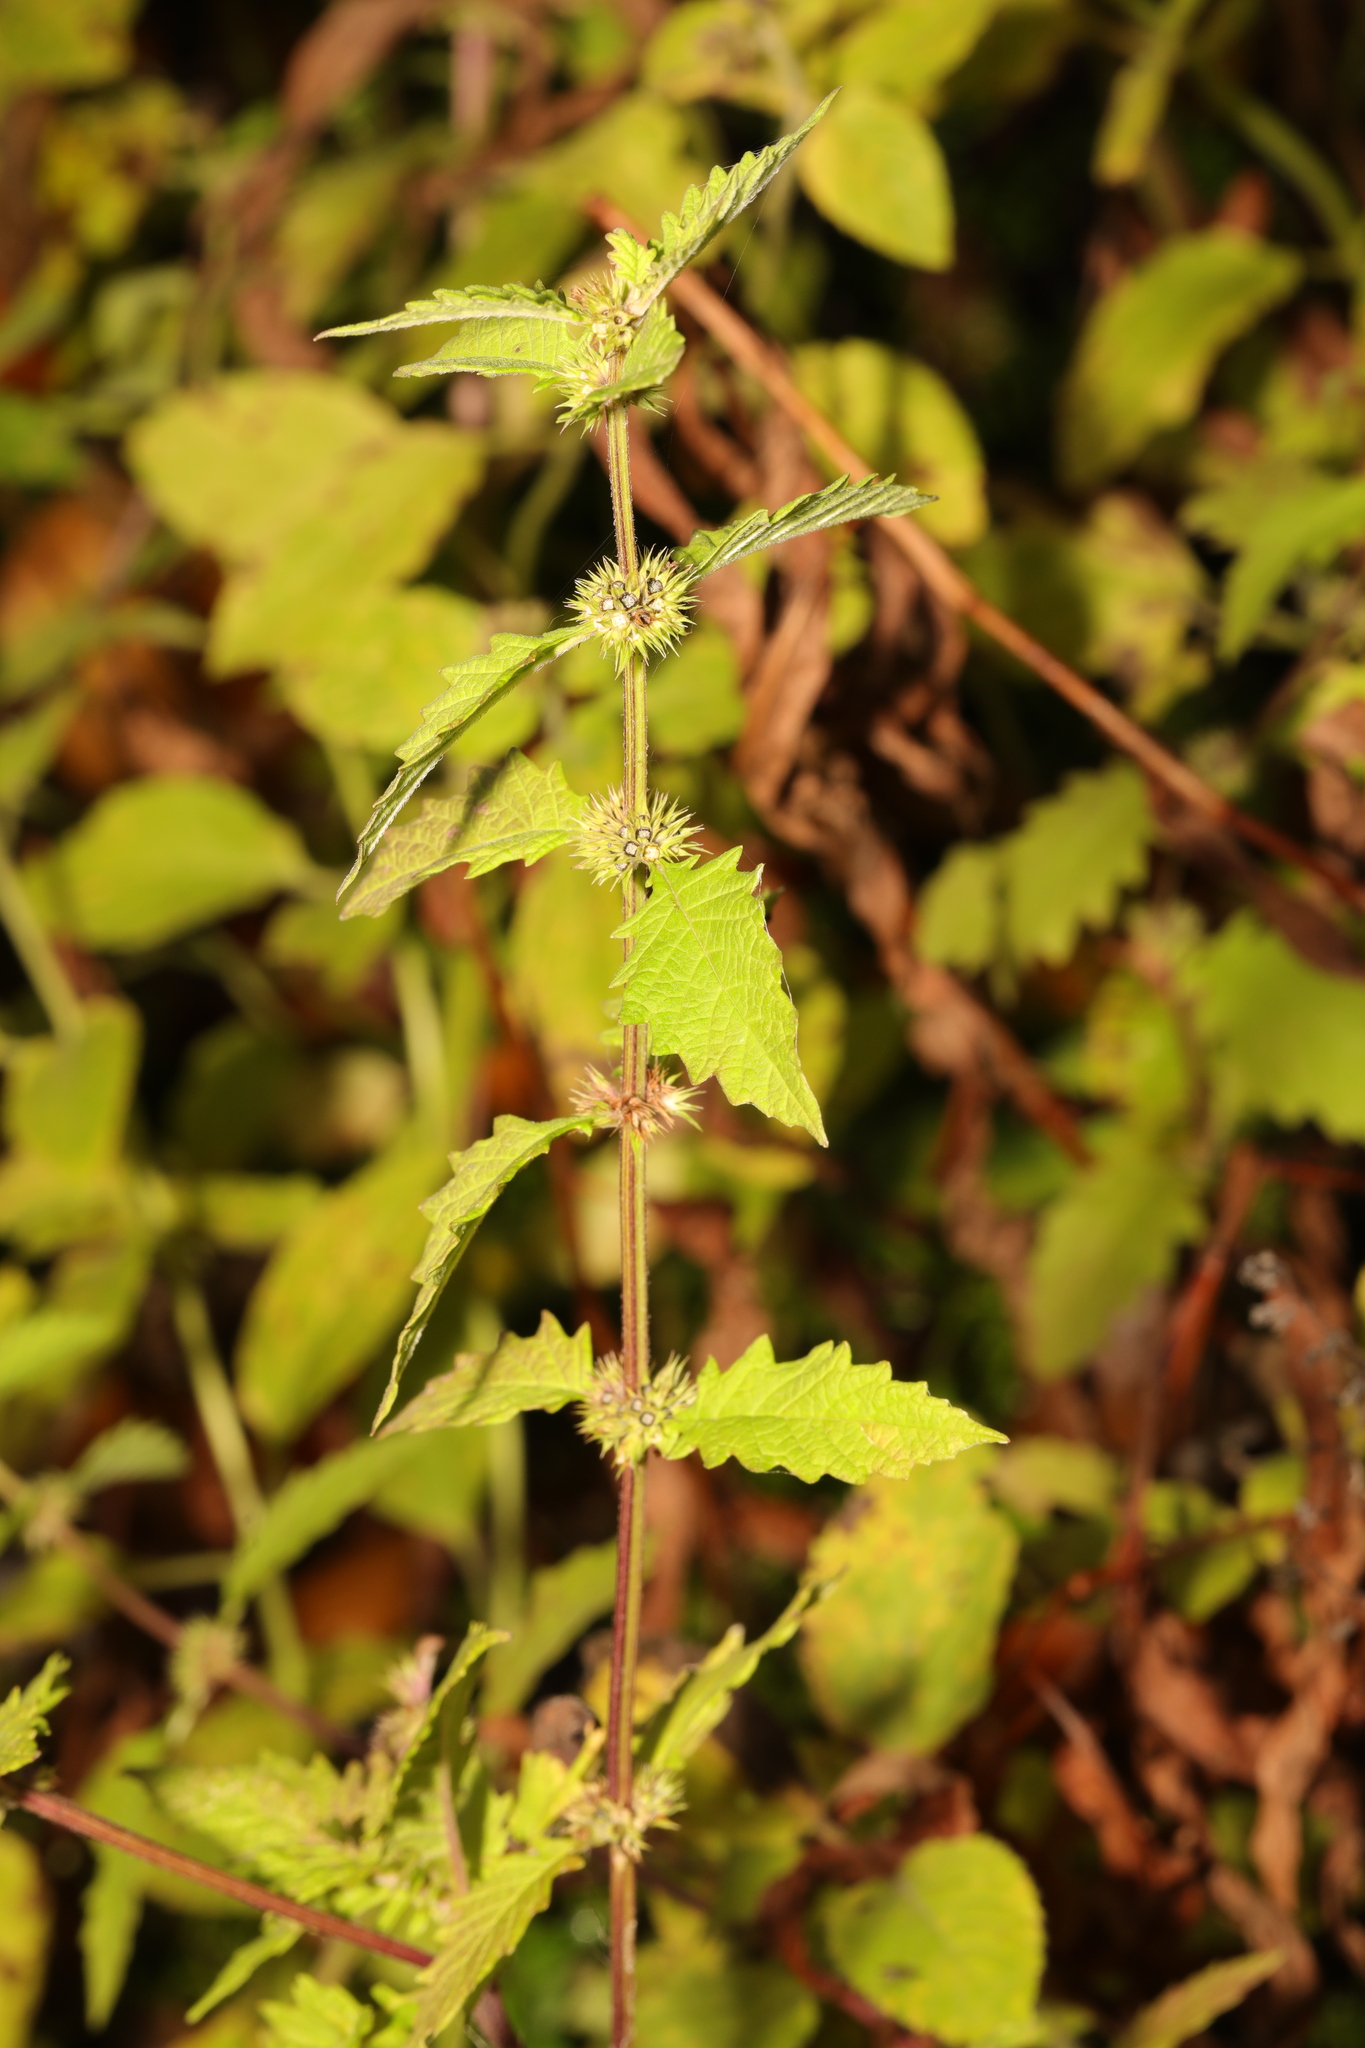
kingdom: Plantae
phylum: Tracheophyta
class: Magnoliopsida
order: Lamiales
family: Lamiaceae
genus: Lycopus
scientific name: Lycopus europaeus
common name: European bugleweed
